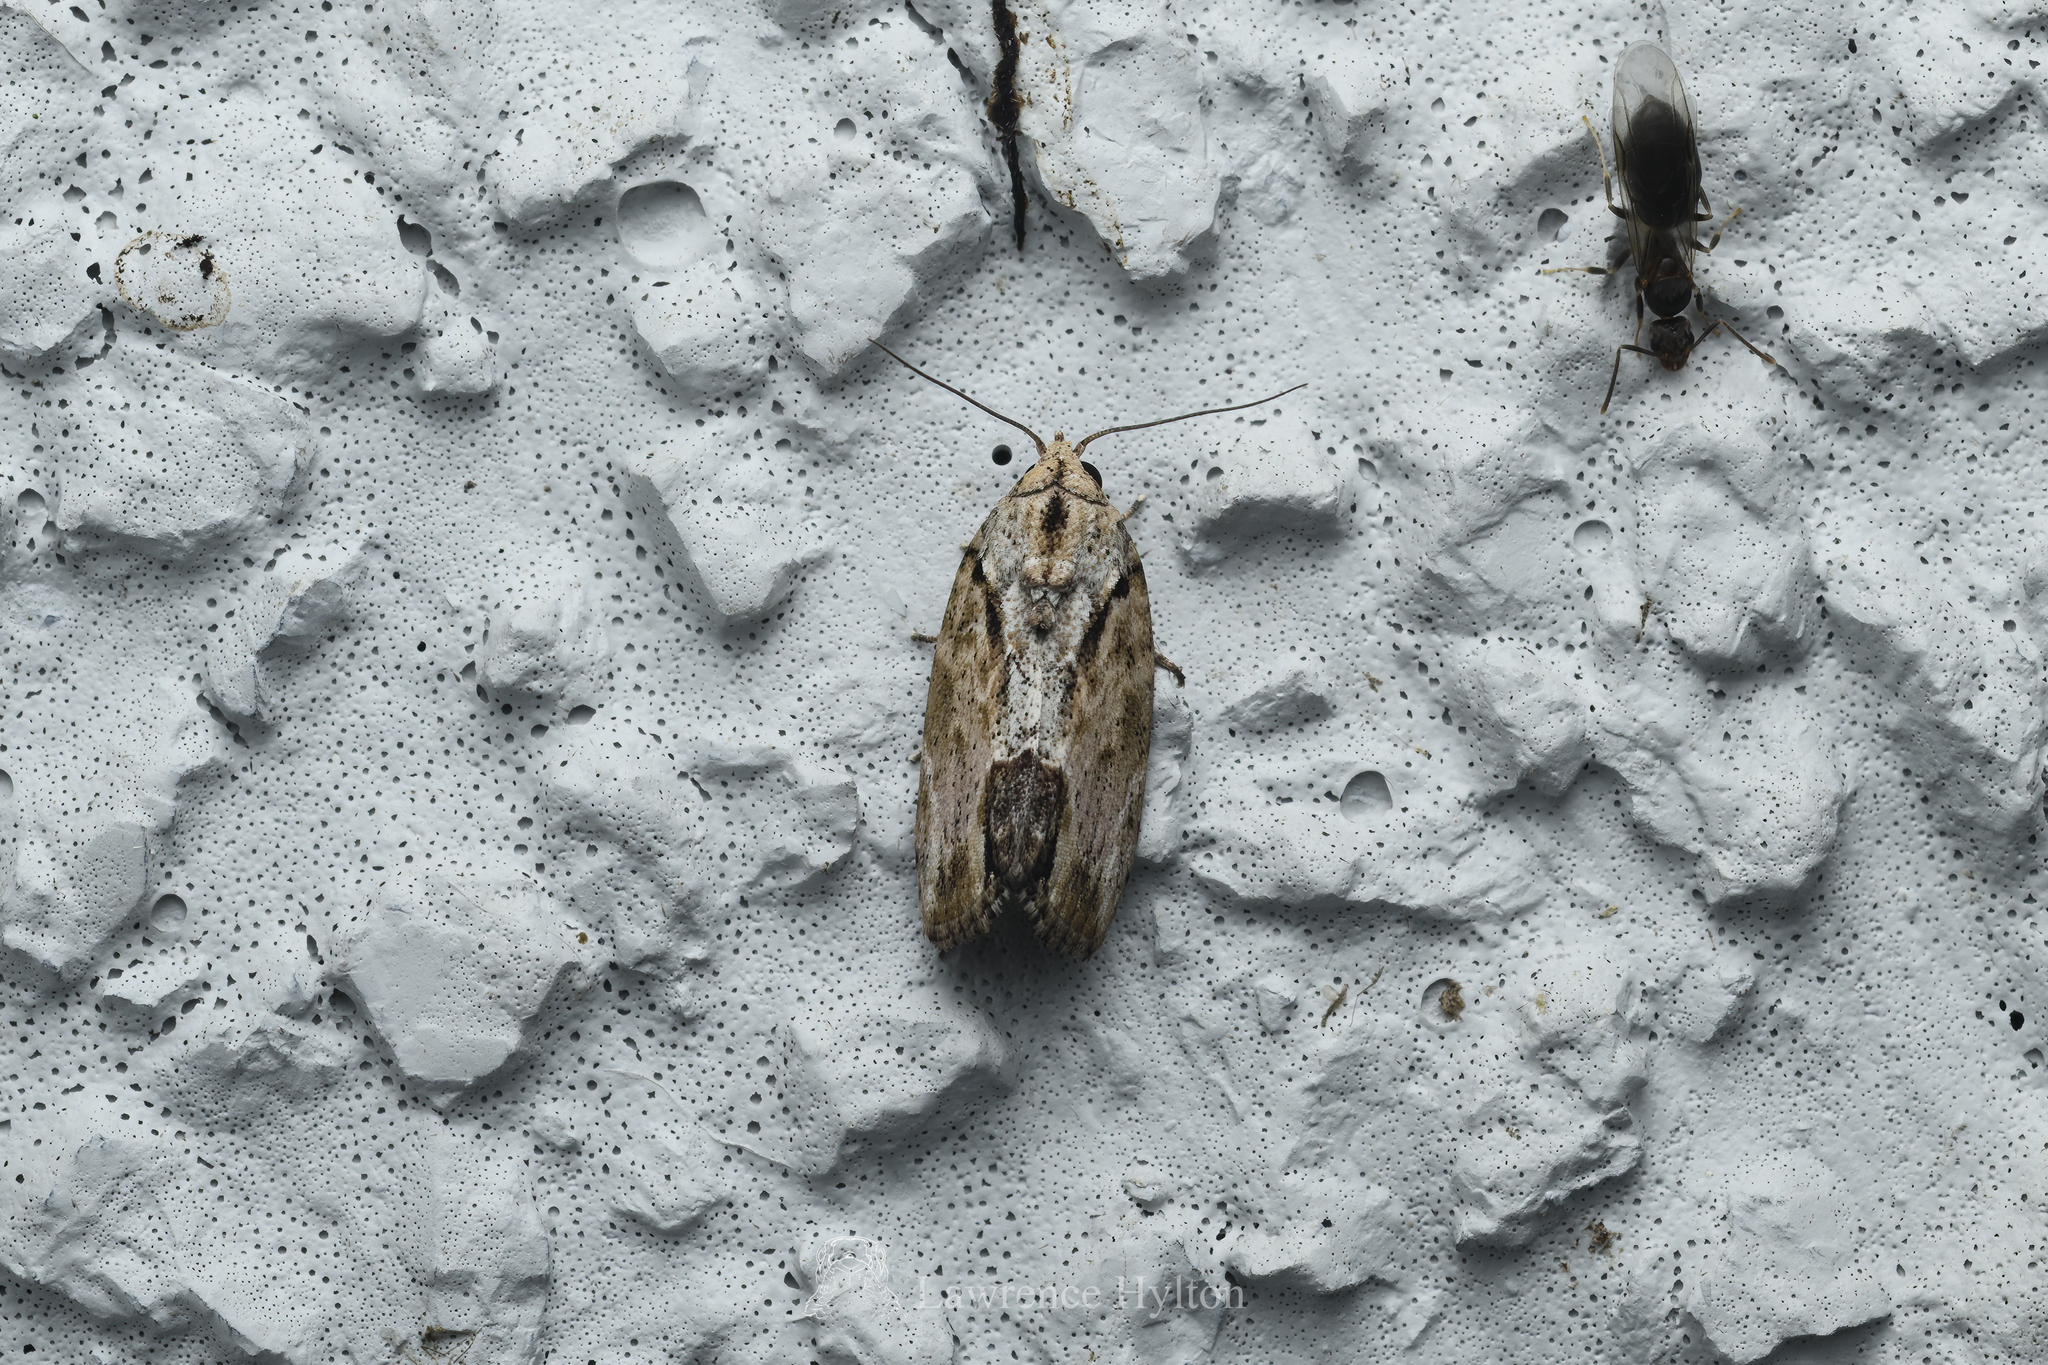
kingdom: Animalia
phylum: Arthropoda
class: Insecta
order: Lepidoptera
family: Nolidae
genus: Etanna
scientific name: Etanna breviuscula
